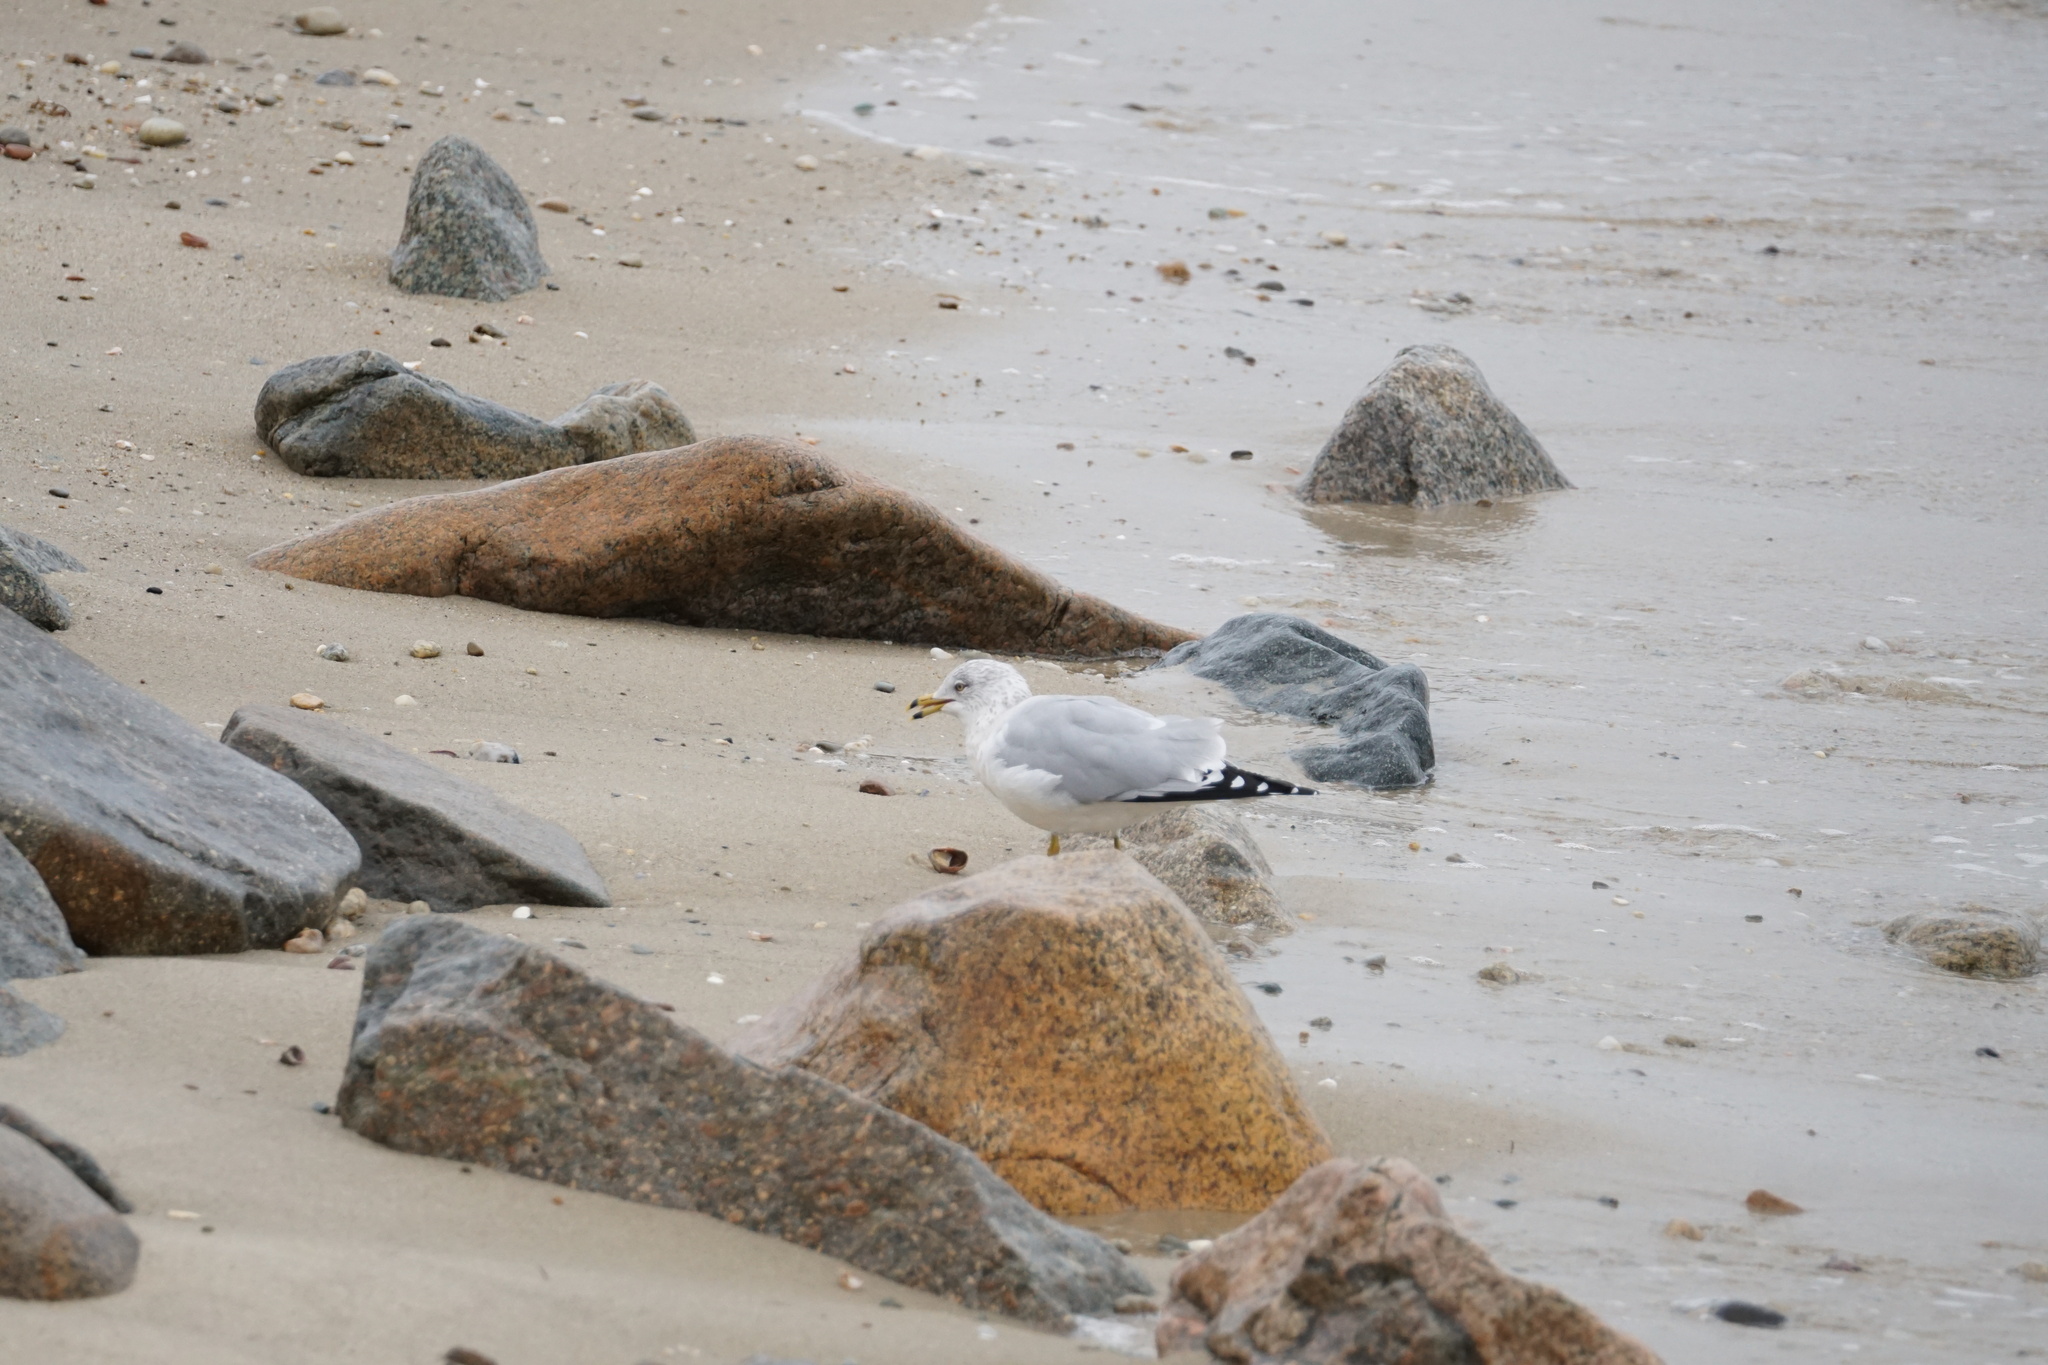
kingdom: Animalia
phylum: Chordata
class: Aves
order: Charadriiformes
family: Laridae
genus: Larus
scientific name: Larus delawarensis
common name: Ring-billed gull
